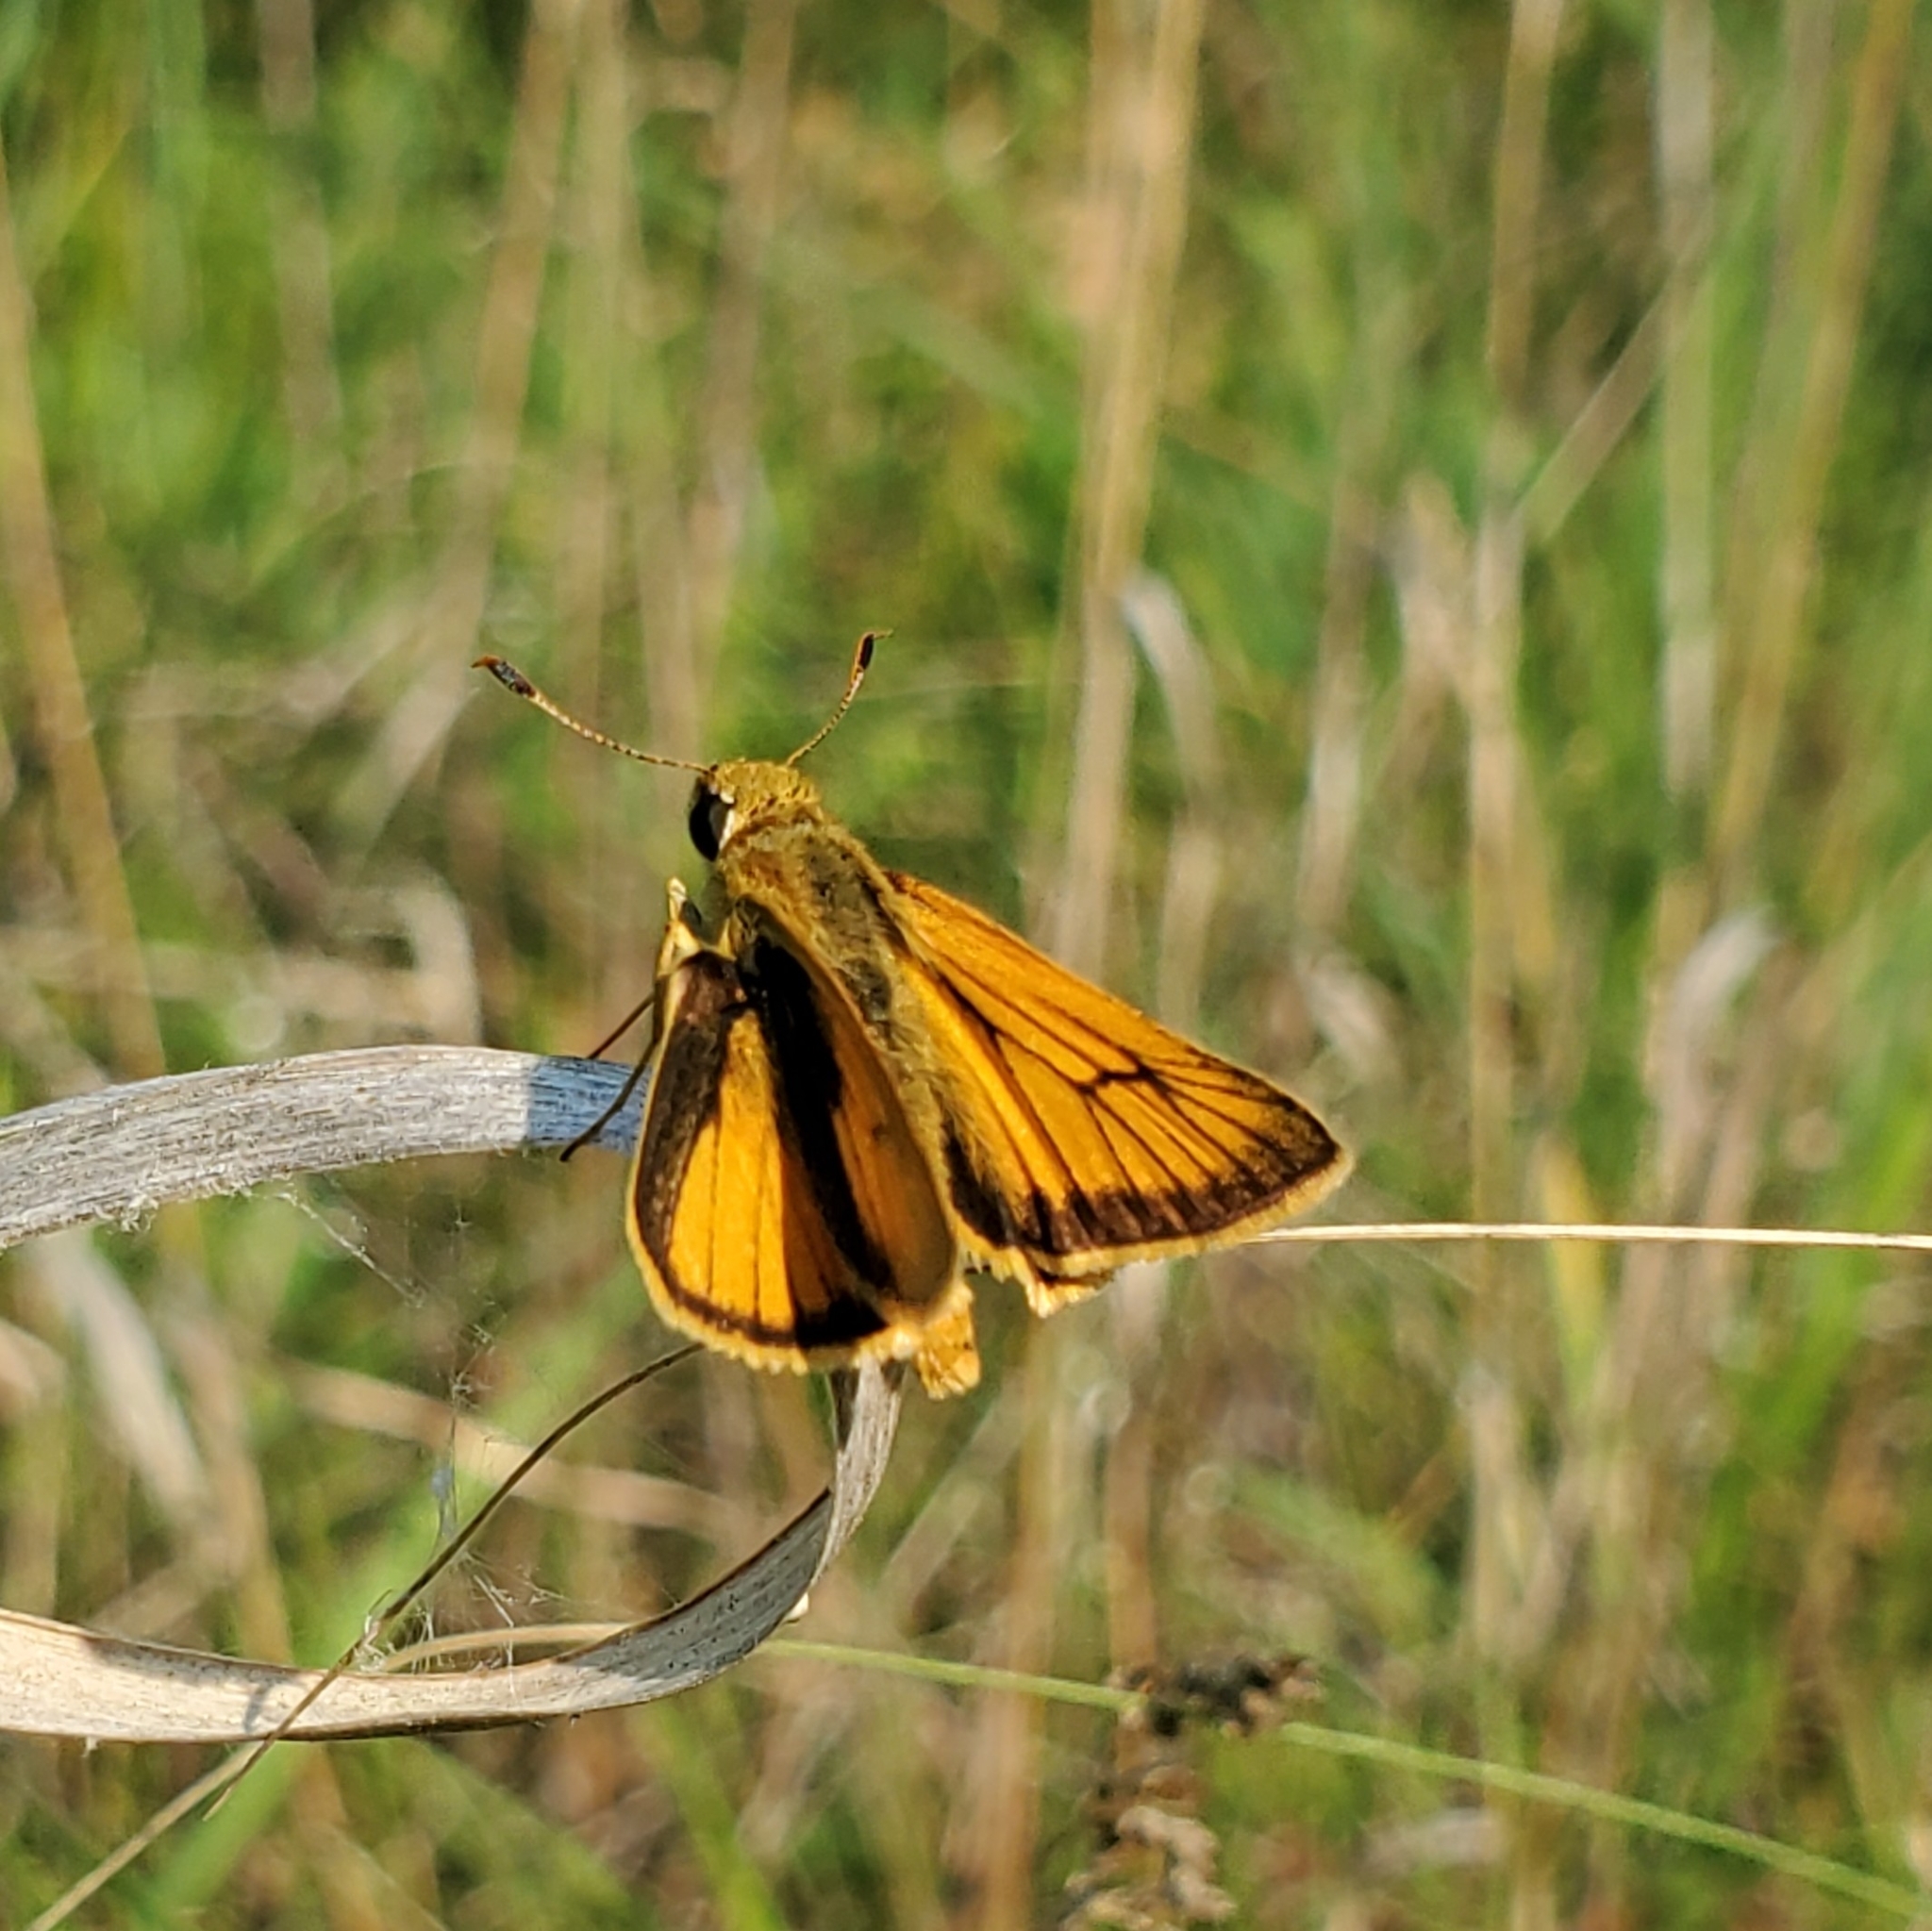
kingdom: Animalia
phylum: Arthropoda
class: Insecta
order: Lepidoptera
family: Hesperiidae
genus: Atrytone
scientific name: Atrytone delaware
